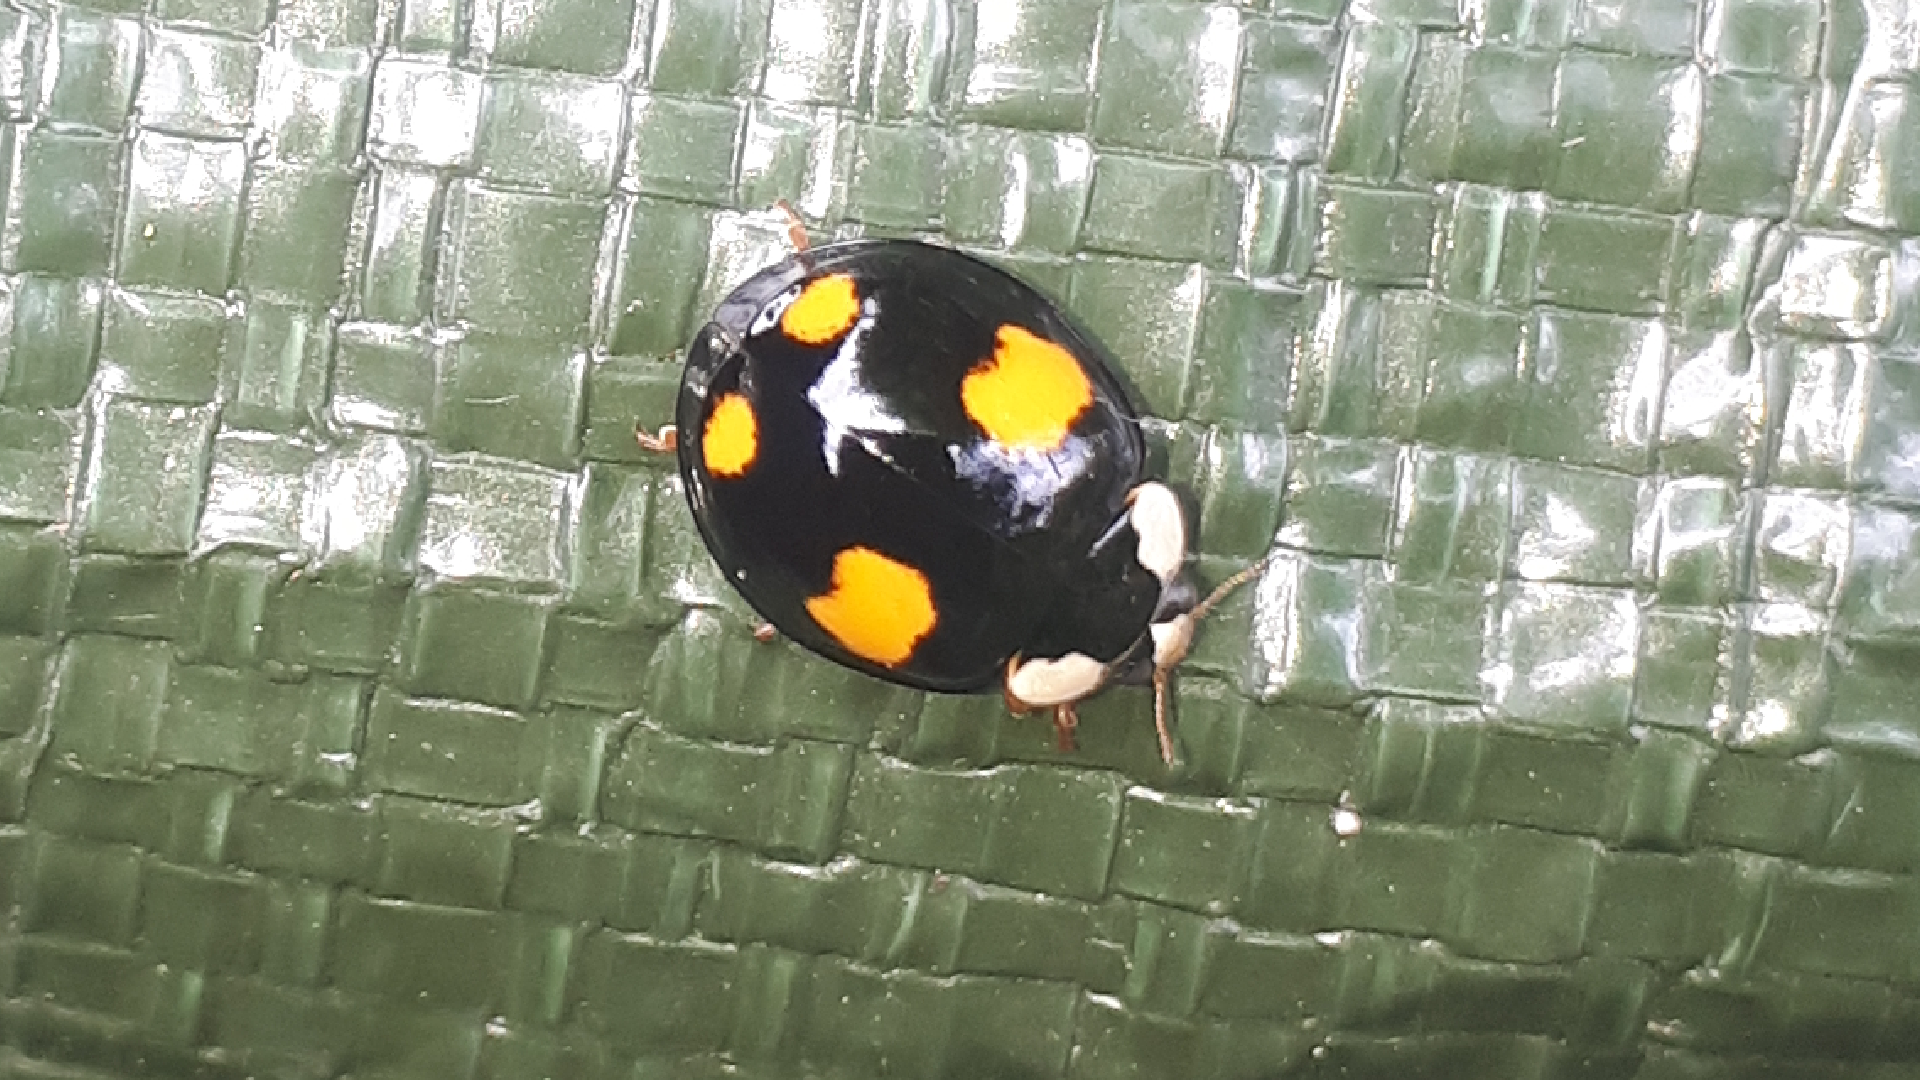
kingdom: Animalia
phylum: Arthropoda
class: Insecta
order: Coleoptera
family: Coccinellidae
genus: Harmonia
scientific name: Harmonia axyridis
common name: Harlequin ladybird
